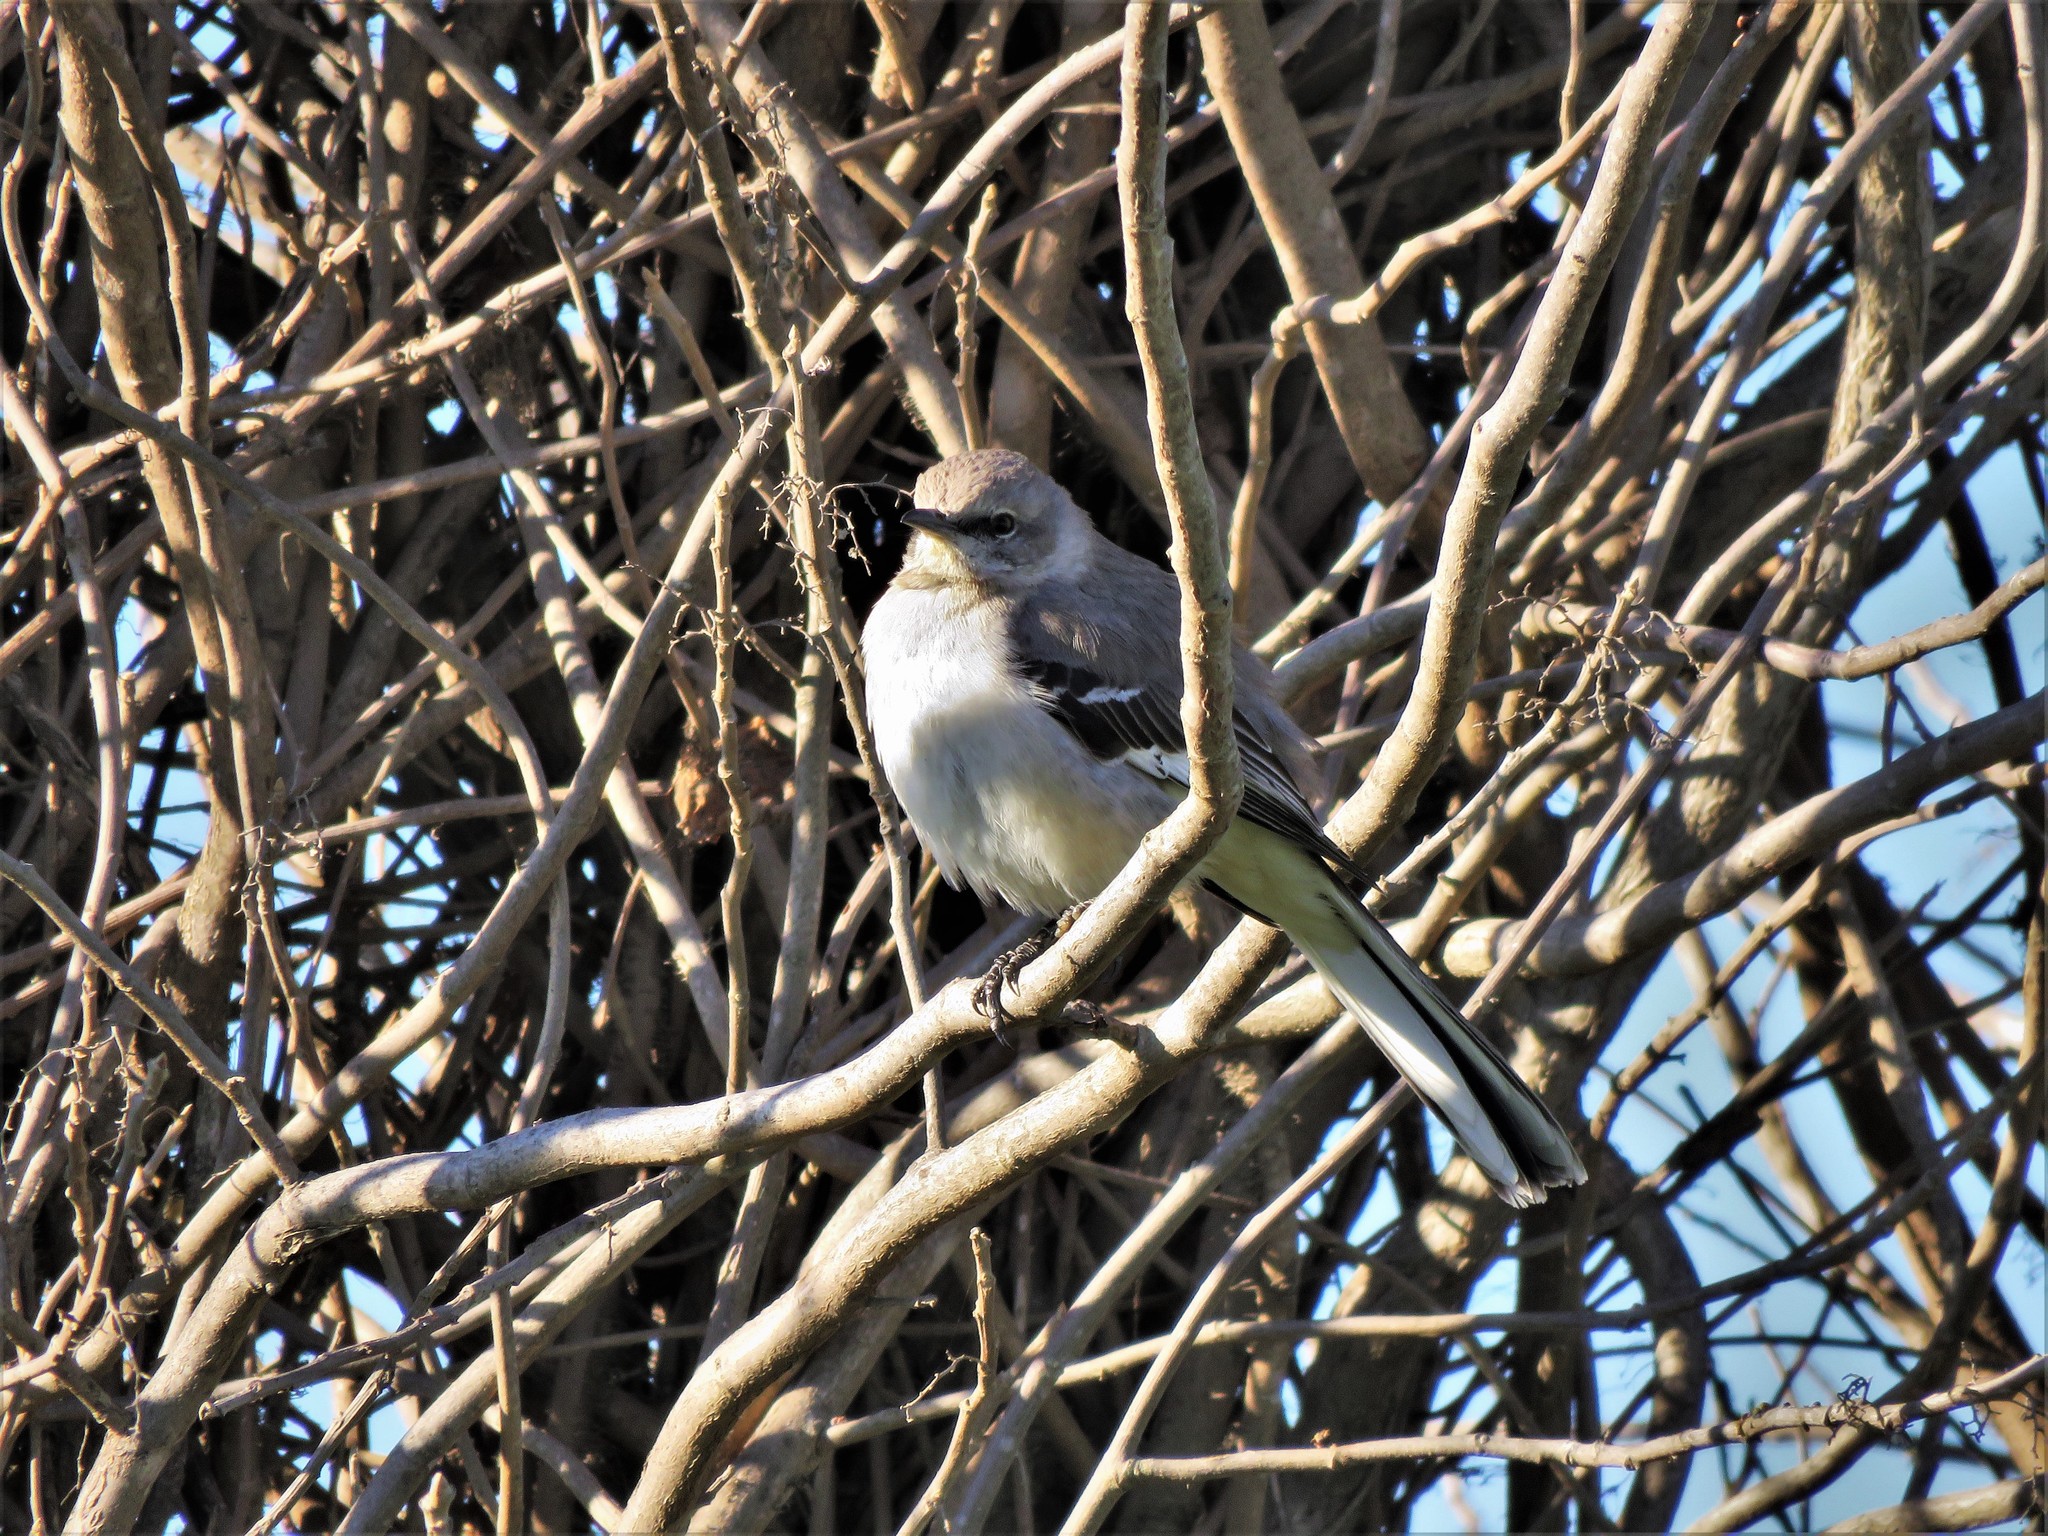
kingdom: Animalia
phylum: Chordata
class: Aves
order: Passeriformes
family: Mimidae
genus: Mimus
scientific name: Mimus polyglottos
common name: Northern mockingbird
